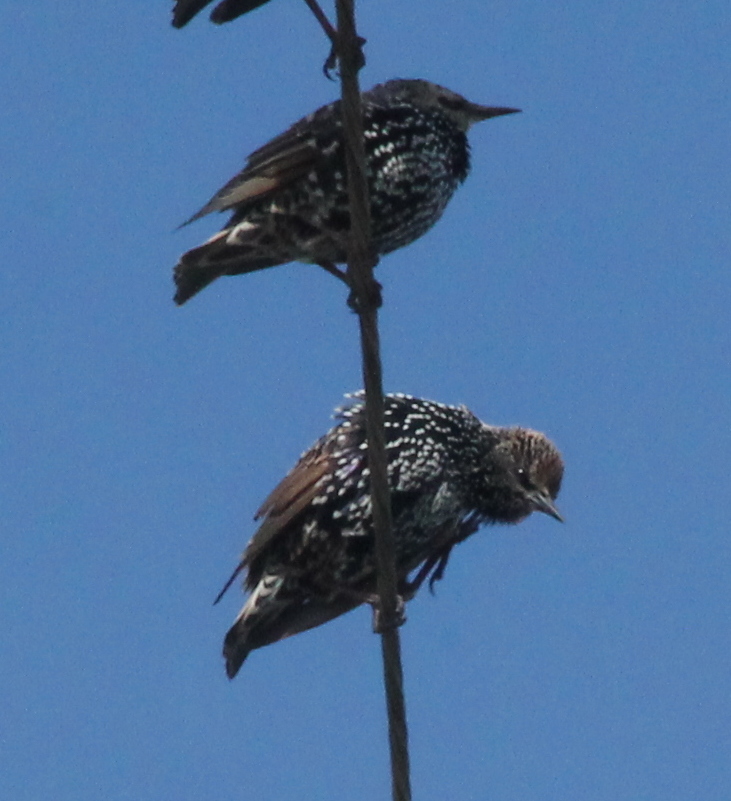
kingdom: Animalia
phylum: Chordata
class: Aves
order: Passeriformes
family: Sturnidae
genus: Sturnus
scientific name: Sturnus vulgaris
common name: Common starling
